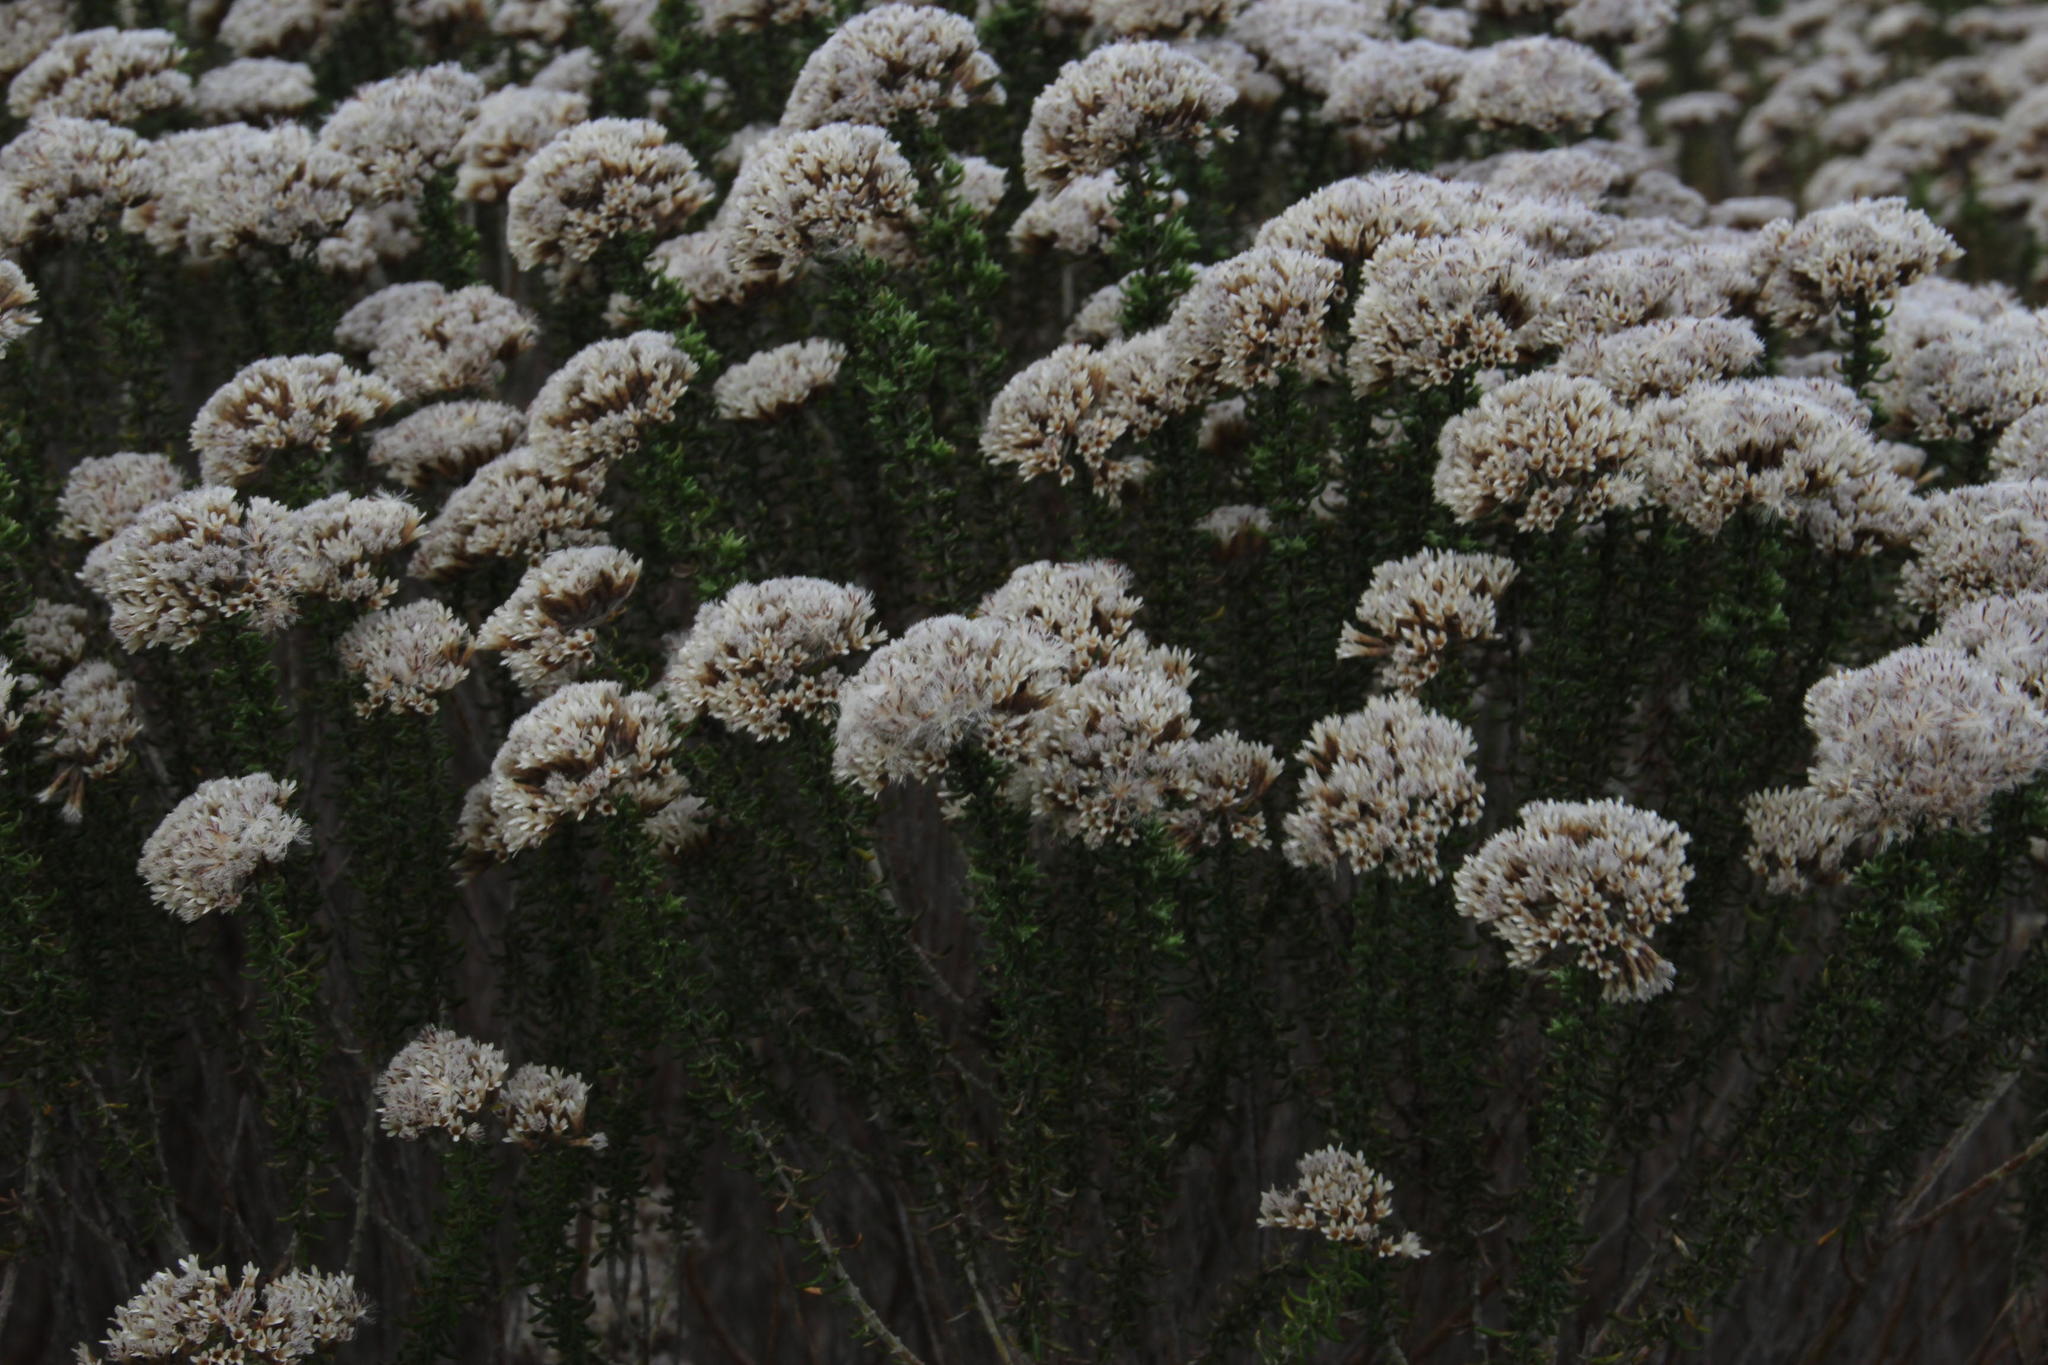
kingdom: Plantae
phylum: Tracheophyta
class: Magnoliopsida
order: Asterales
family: Asteraceae
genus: Metalasia
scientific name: Metalasia densa
